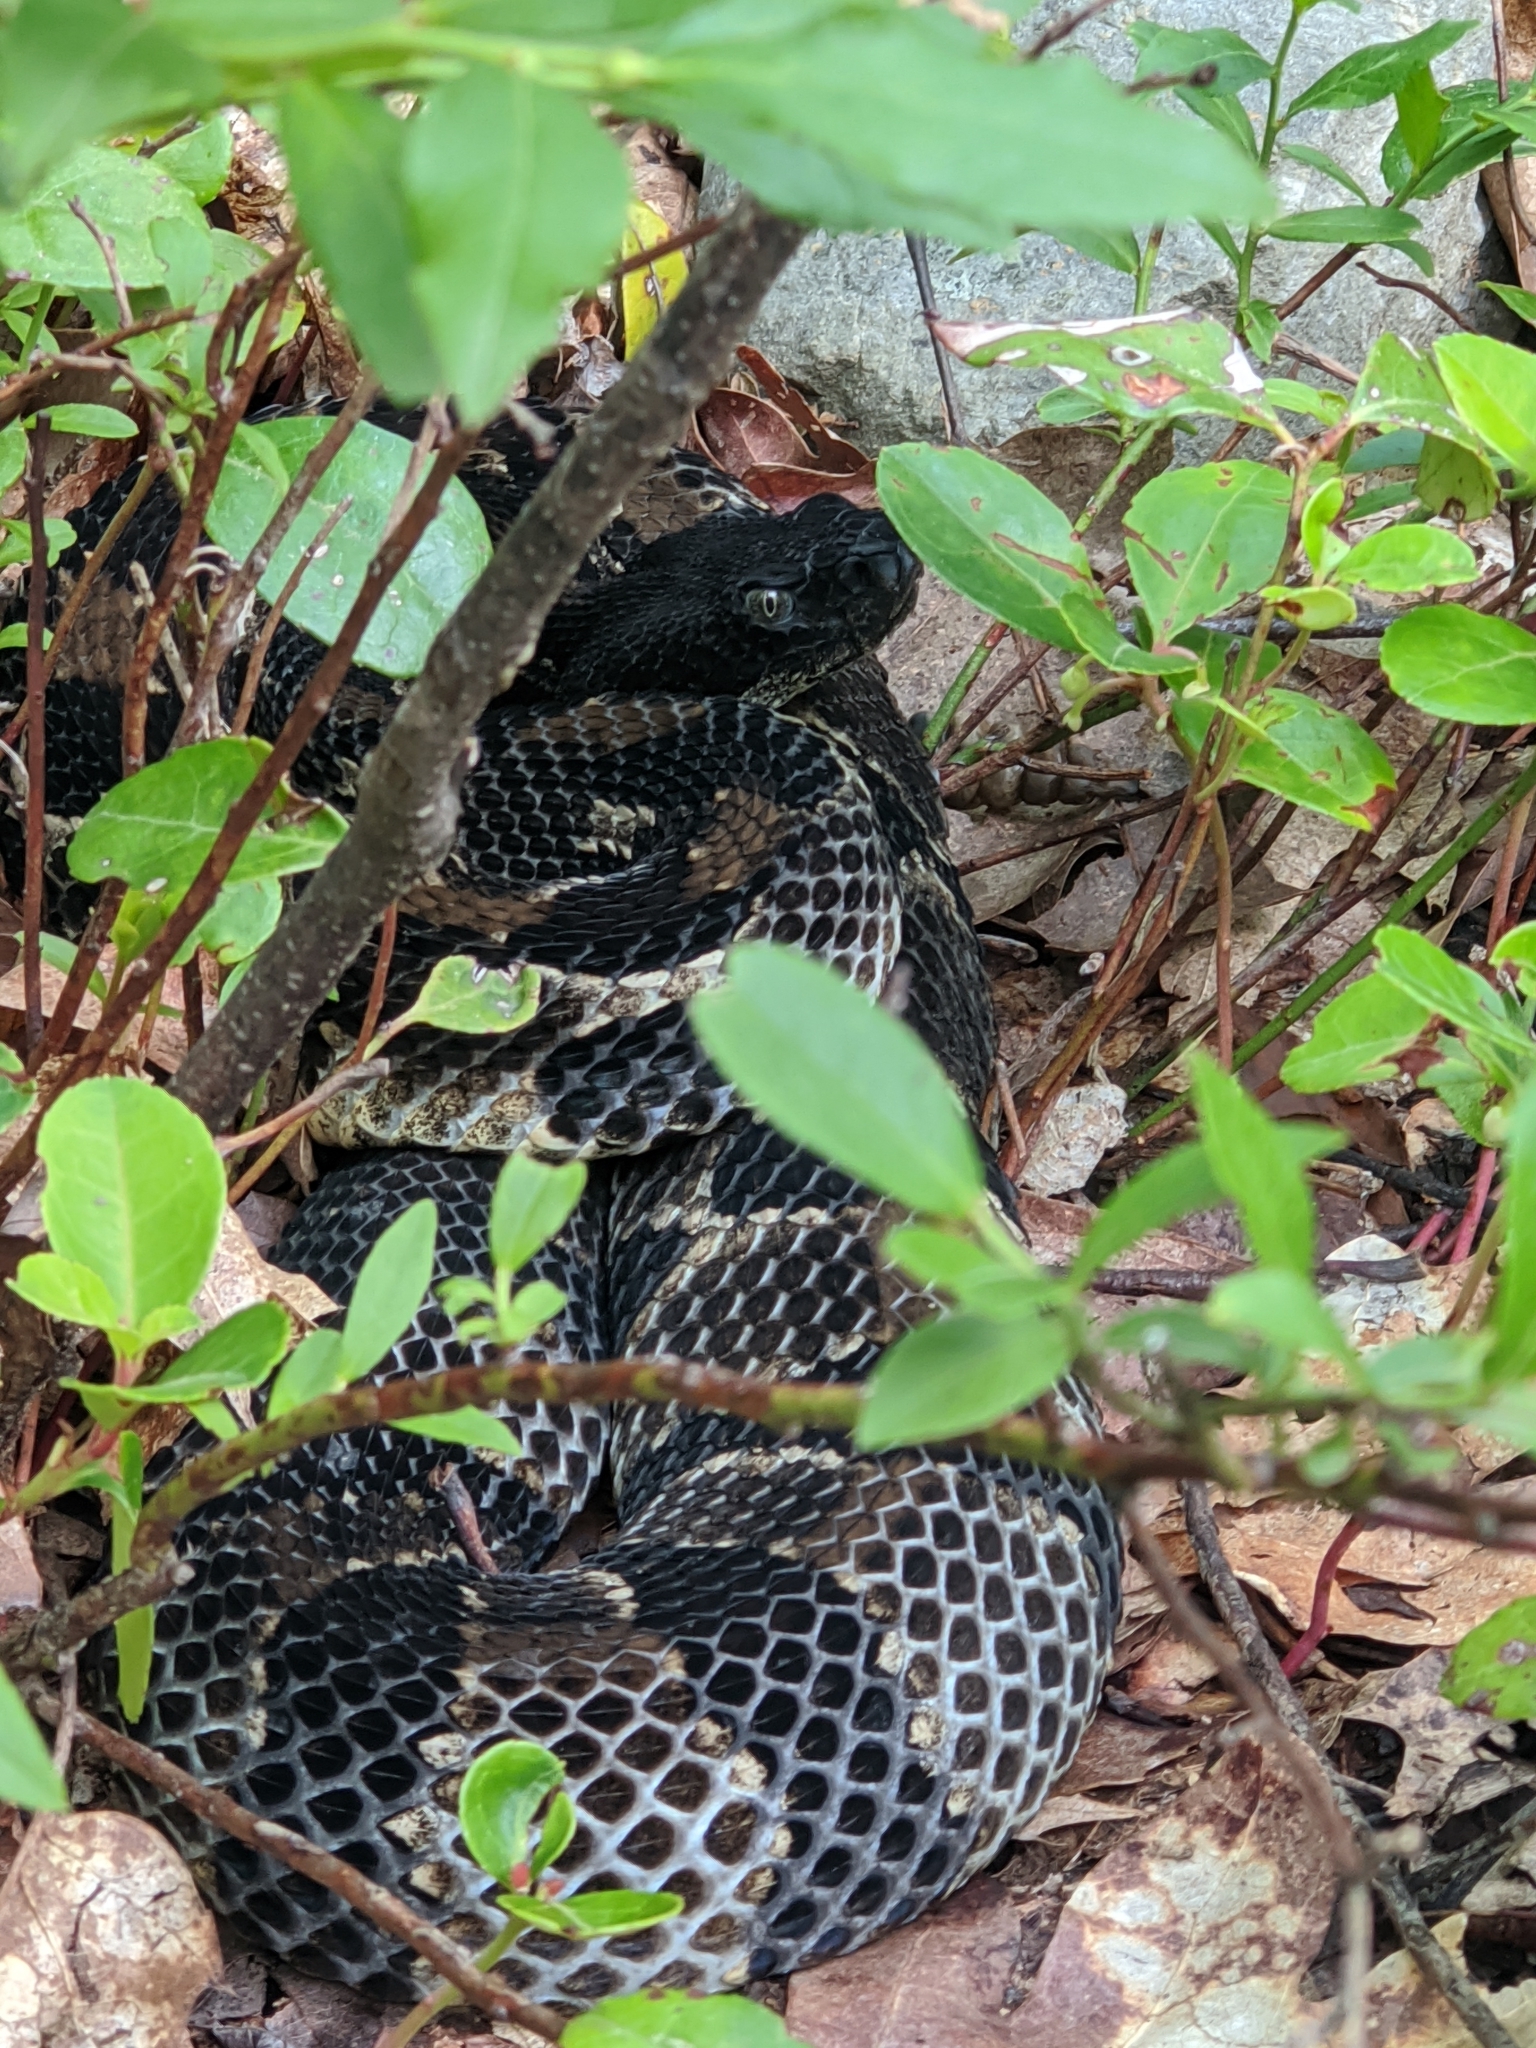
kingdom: Animalia
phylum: Chordata
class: Squamata
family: Viperidae
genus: Crotalus
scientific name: Crotalus horridus
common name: Timber rattlesnake
